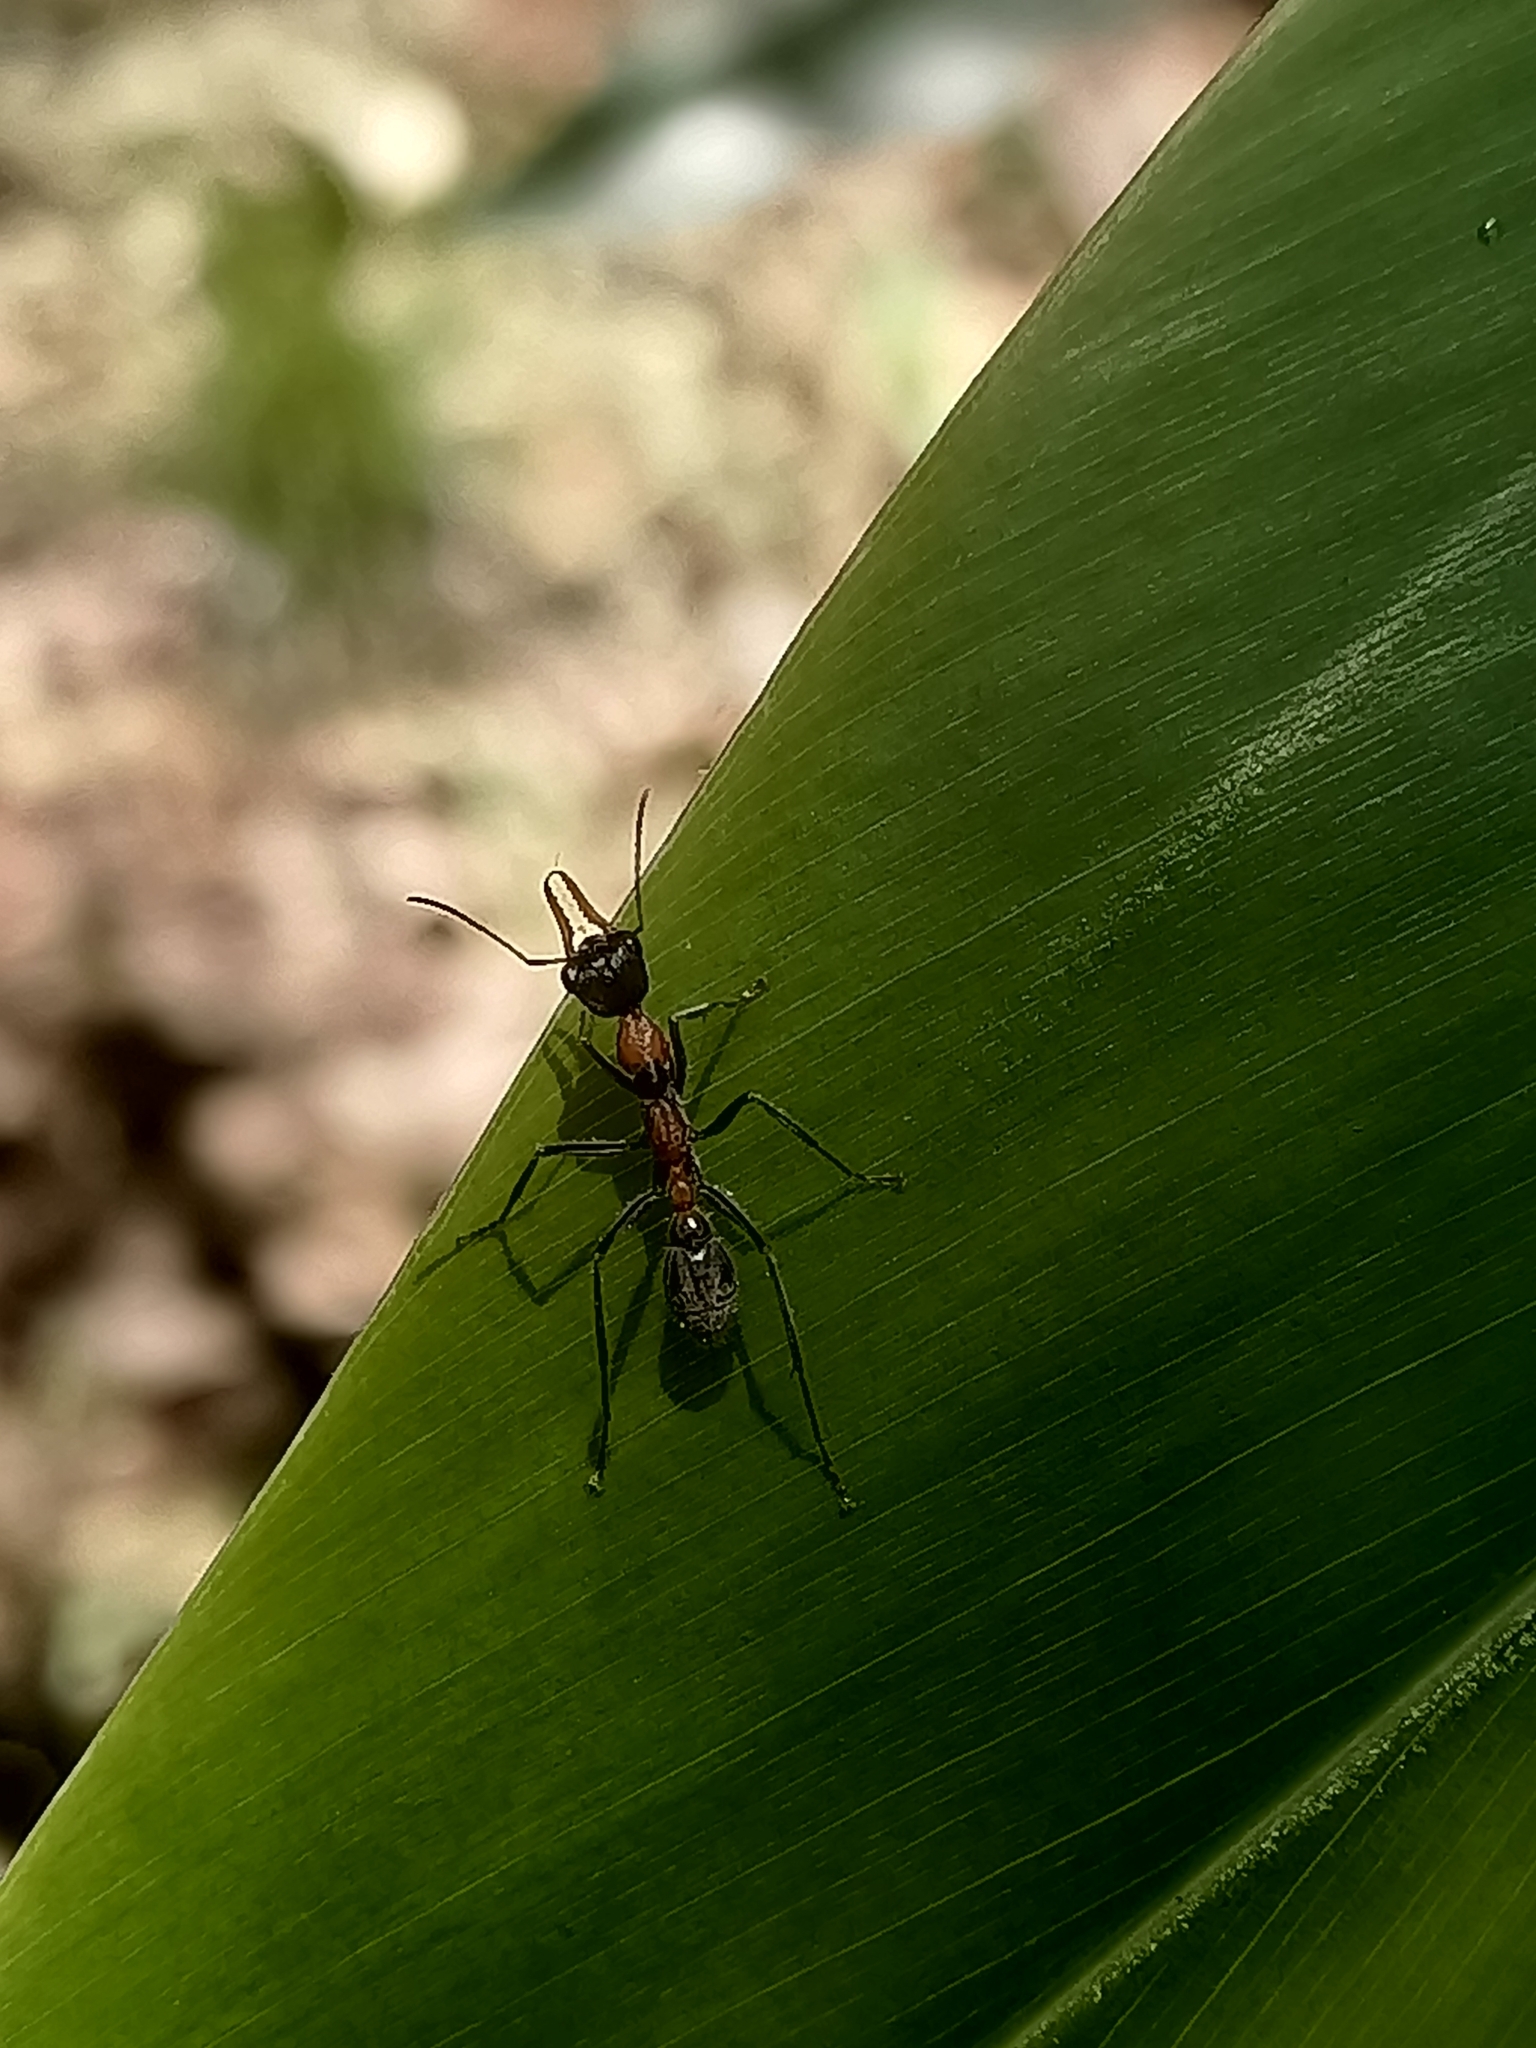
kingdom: Animalia
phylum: Arthropoda
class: Insecta
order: Hymenoptera
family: Formicidae
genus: Myrmecia
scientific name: Myrmecia nigrocincta
